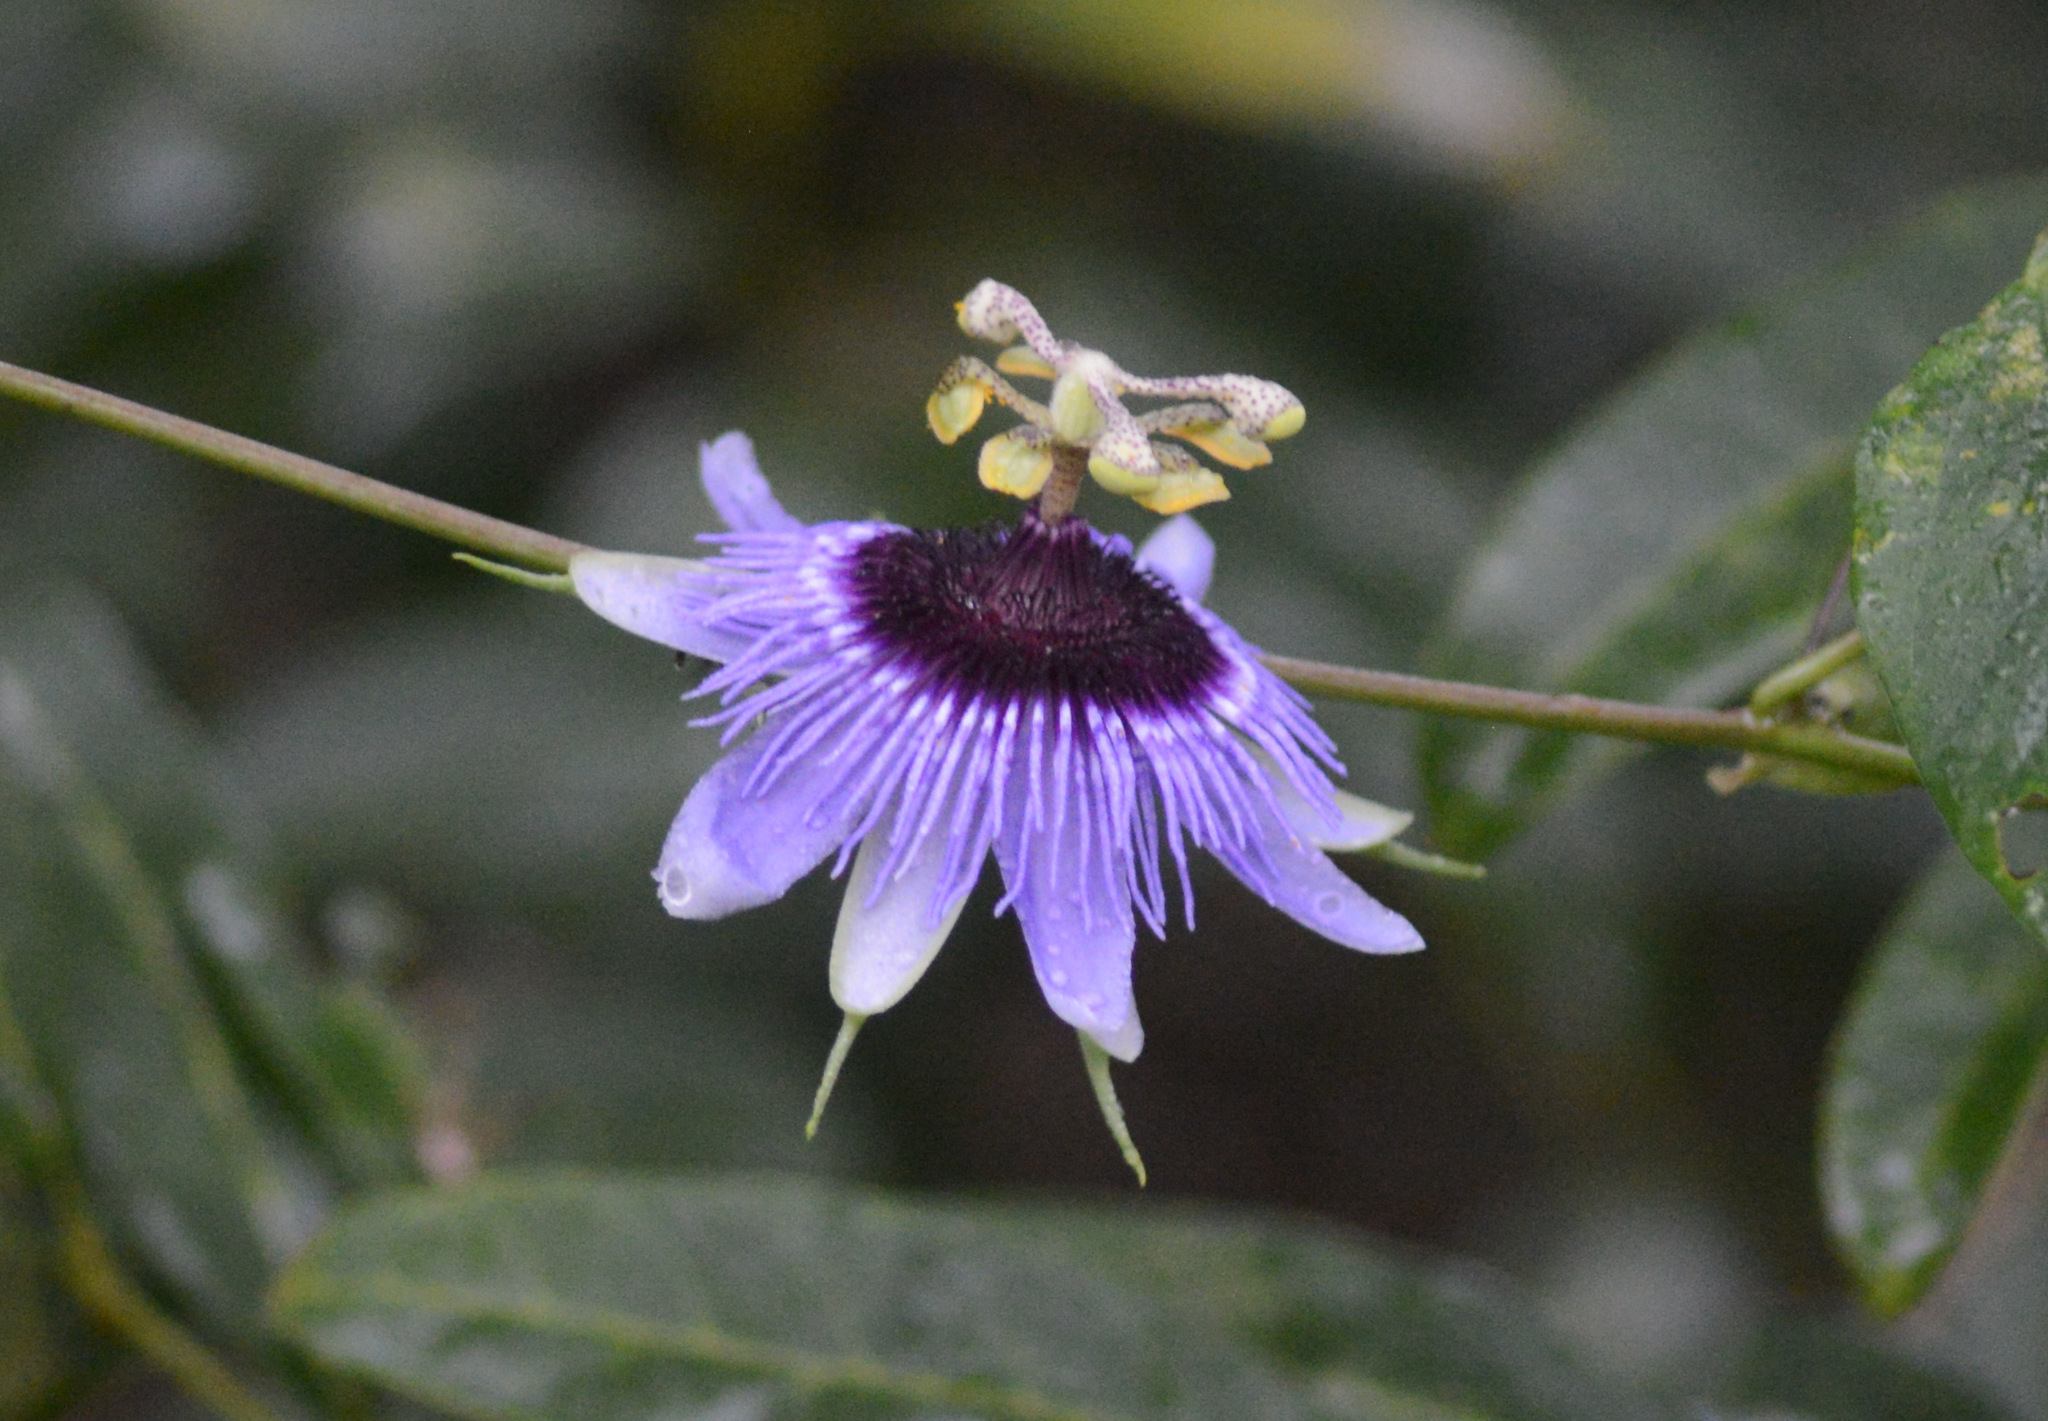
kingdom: Plantae
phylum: Tracheophyta
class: Magnoliopsida
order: Malpighiales
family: Passifloraceae
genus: Passiflora
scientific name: Passiflora amethystina
